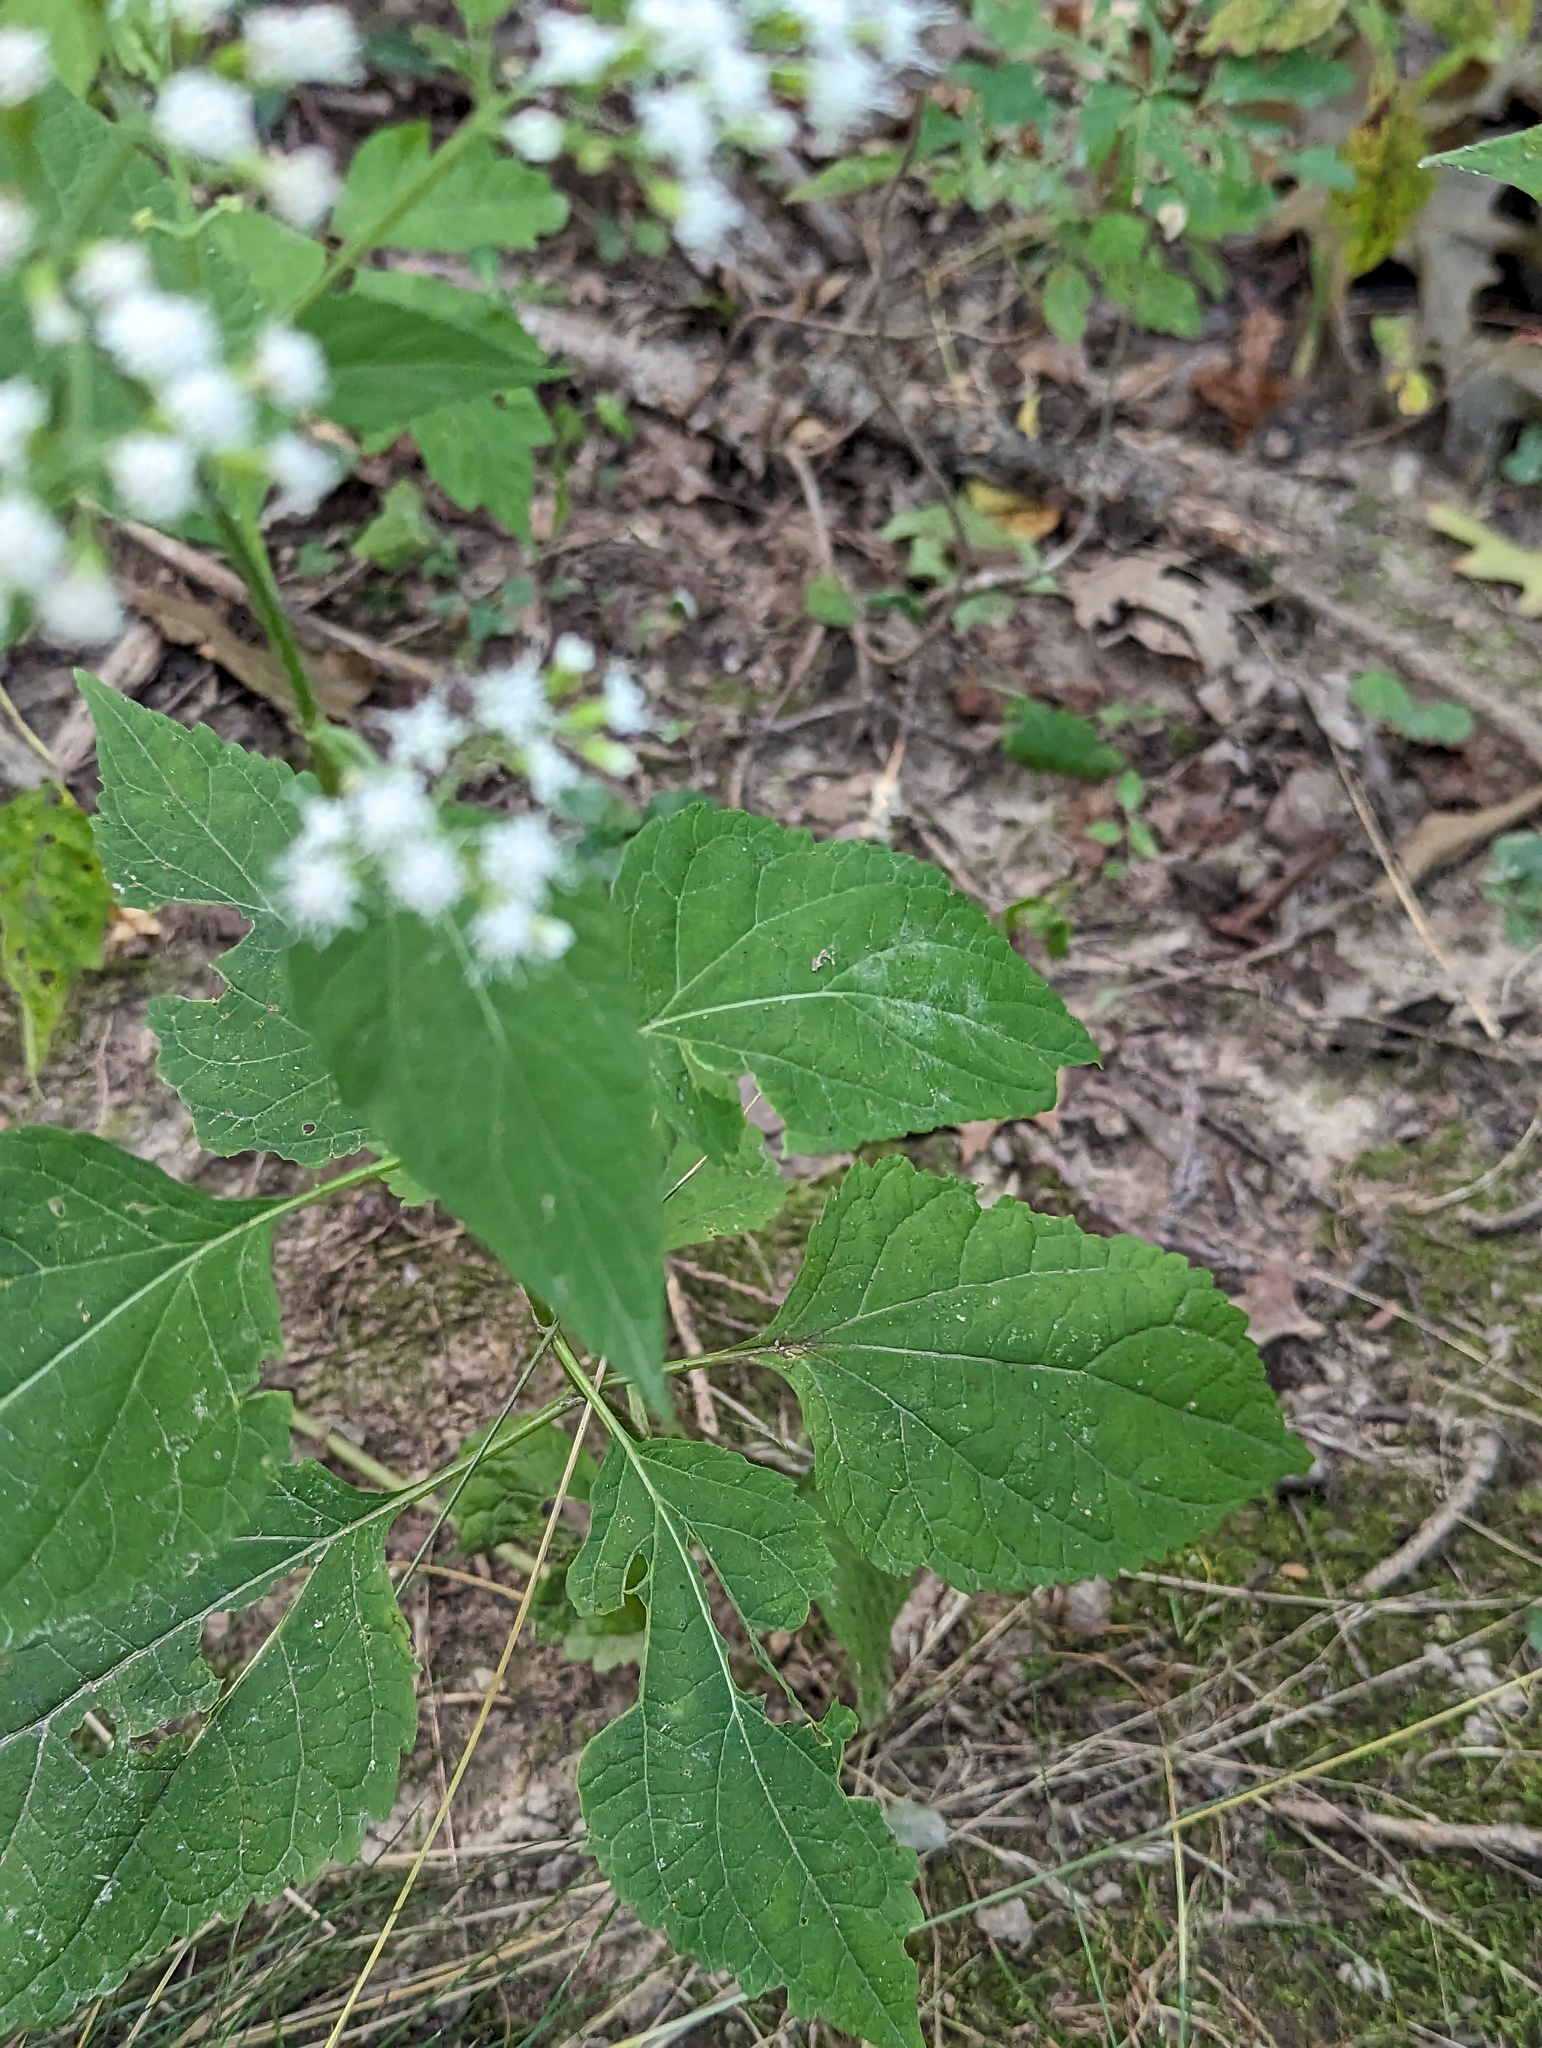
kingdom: Plantae
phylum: Tracheophyta
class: Magnoliopsida
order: Asterales
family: Asteraceae
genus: Ageratina
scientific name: Ageratina altissima
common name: White snakeroot
